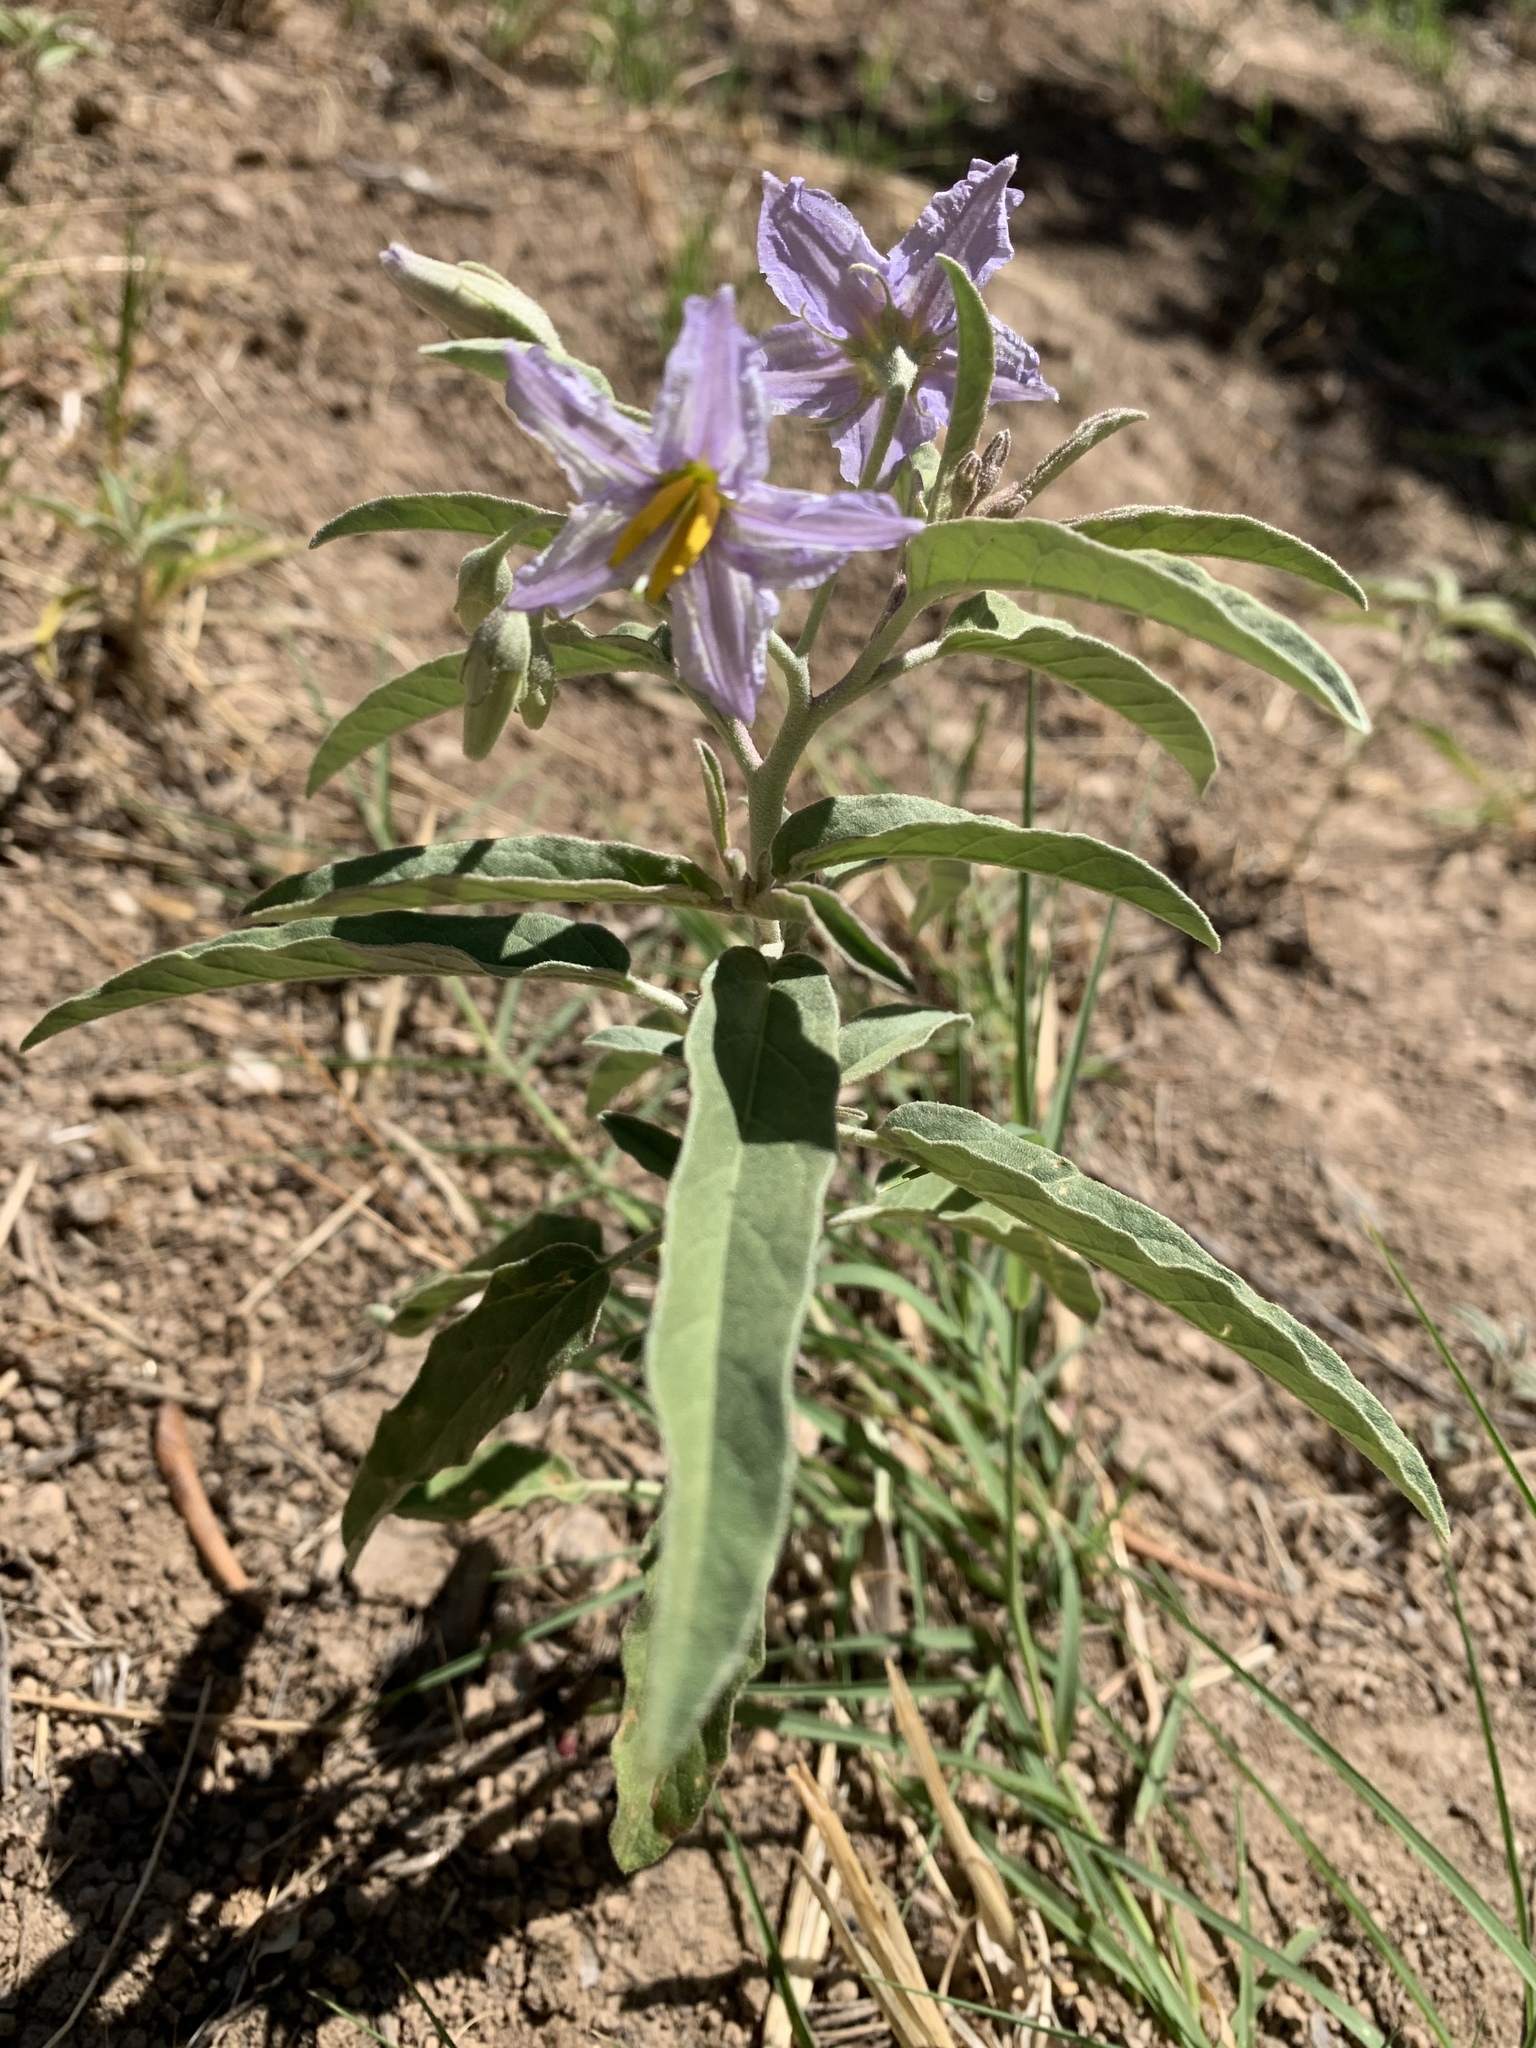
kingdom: Plantae
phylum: Tracheophyta
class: Magnoliopsida
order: Solanales
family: Solanaceae
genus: Solanum
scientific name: Solanum elaeagnifolium
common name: Silverleaf nightshade
